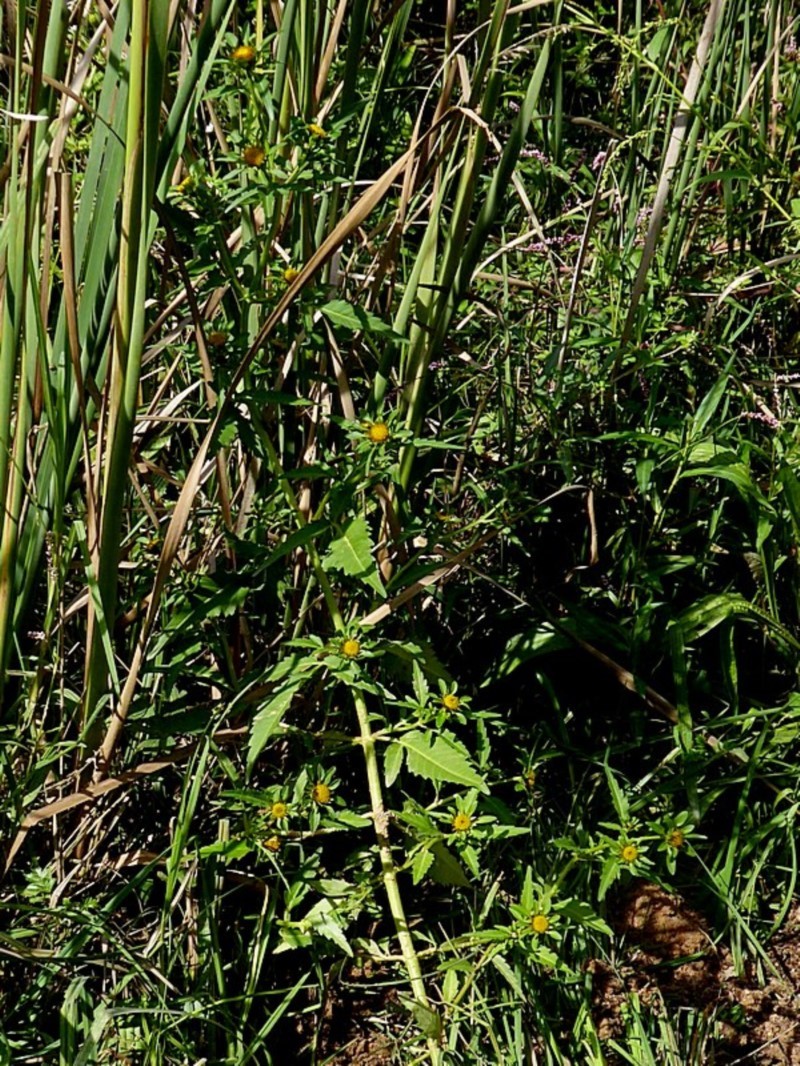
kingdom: Plantae
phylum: Tracheophyta
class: Magnoliopsida
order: Asterales
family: Asteraceae
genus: Bidens
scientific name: Bidens tripartita
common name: Trifid bur-marigold
